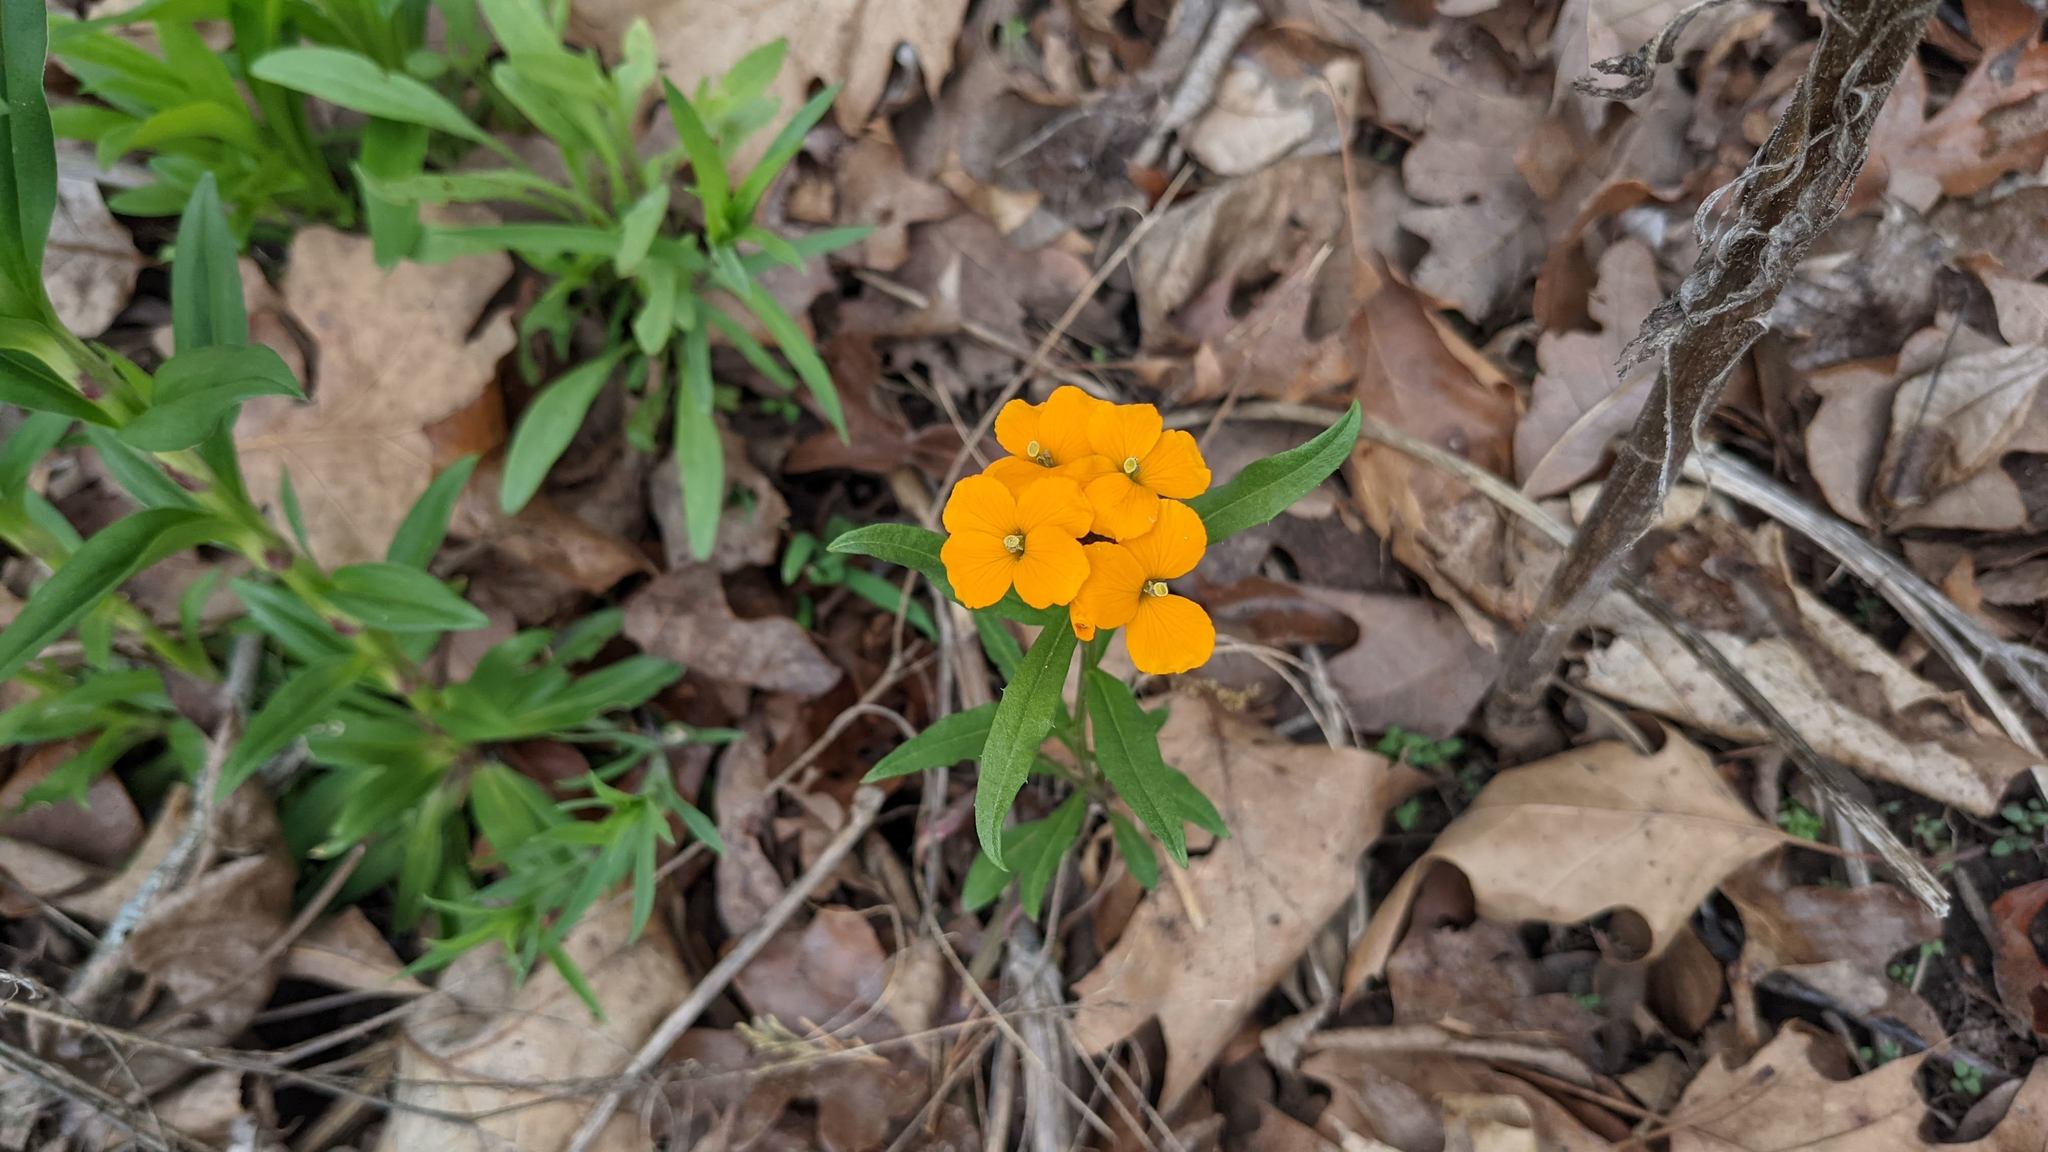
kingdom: Plantae
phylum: Tracheophyta
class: Magnoliopsida
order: Brassicales
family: Brassicaceae
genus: Erysimum
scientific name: Erysimum capitatum
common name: Western wallflower
